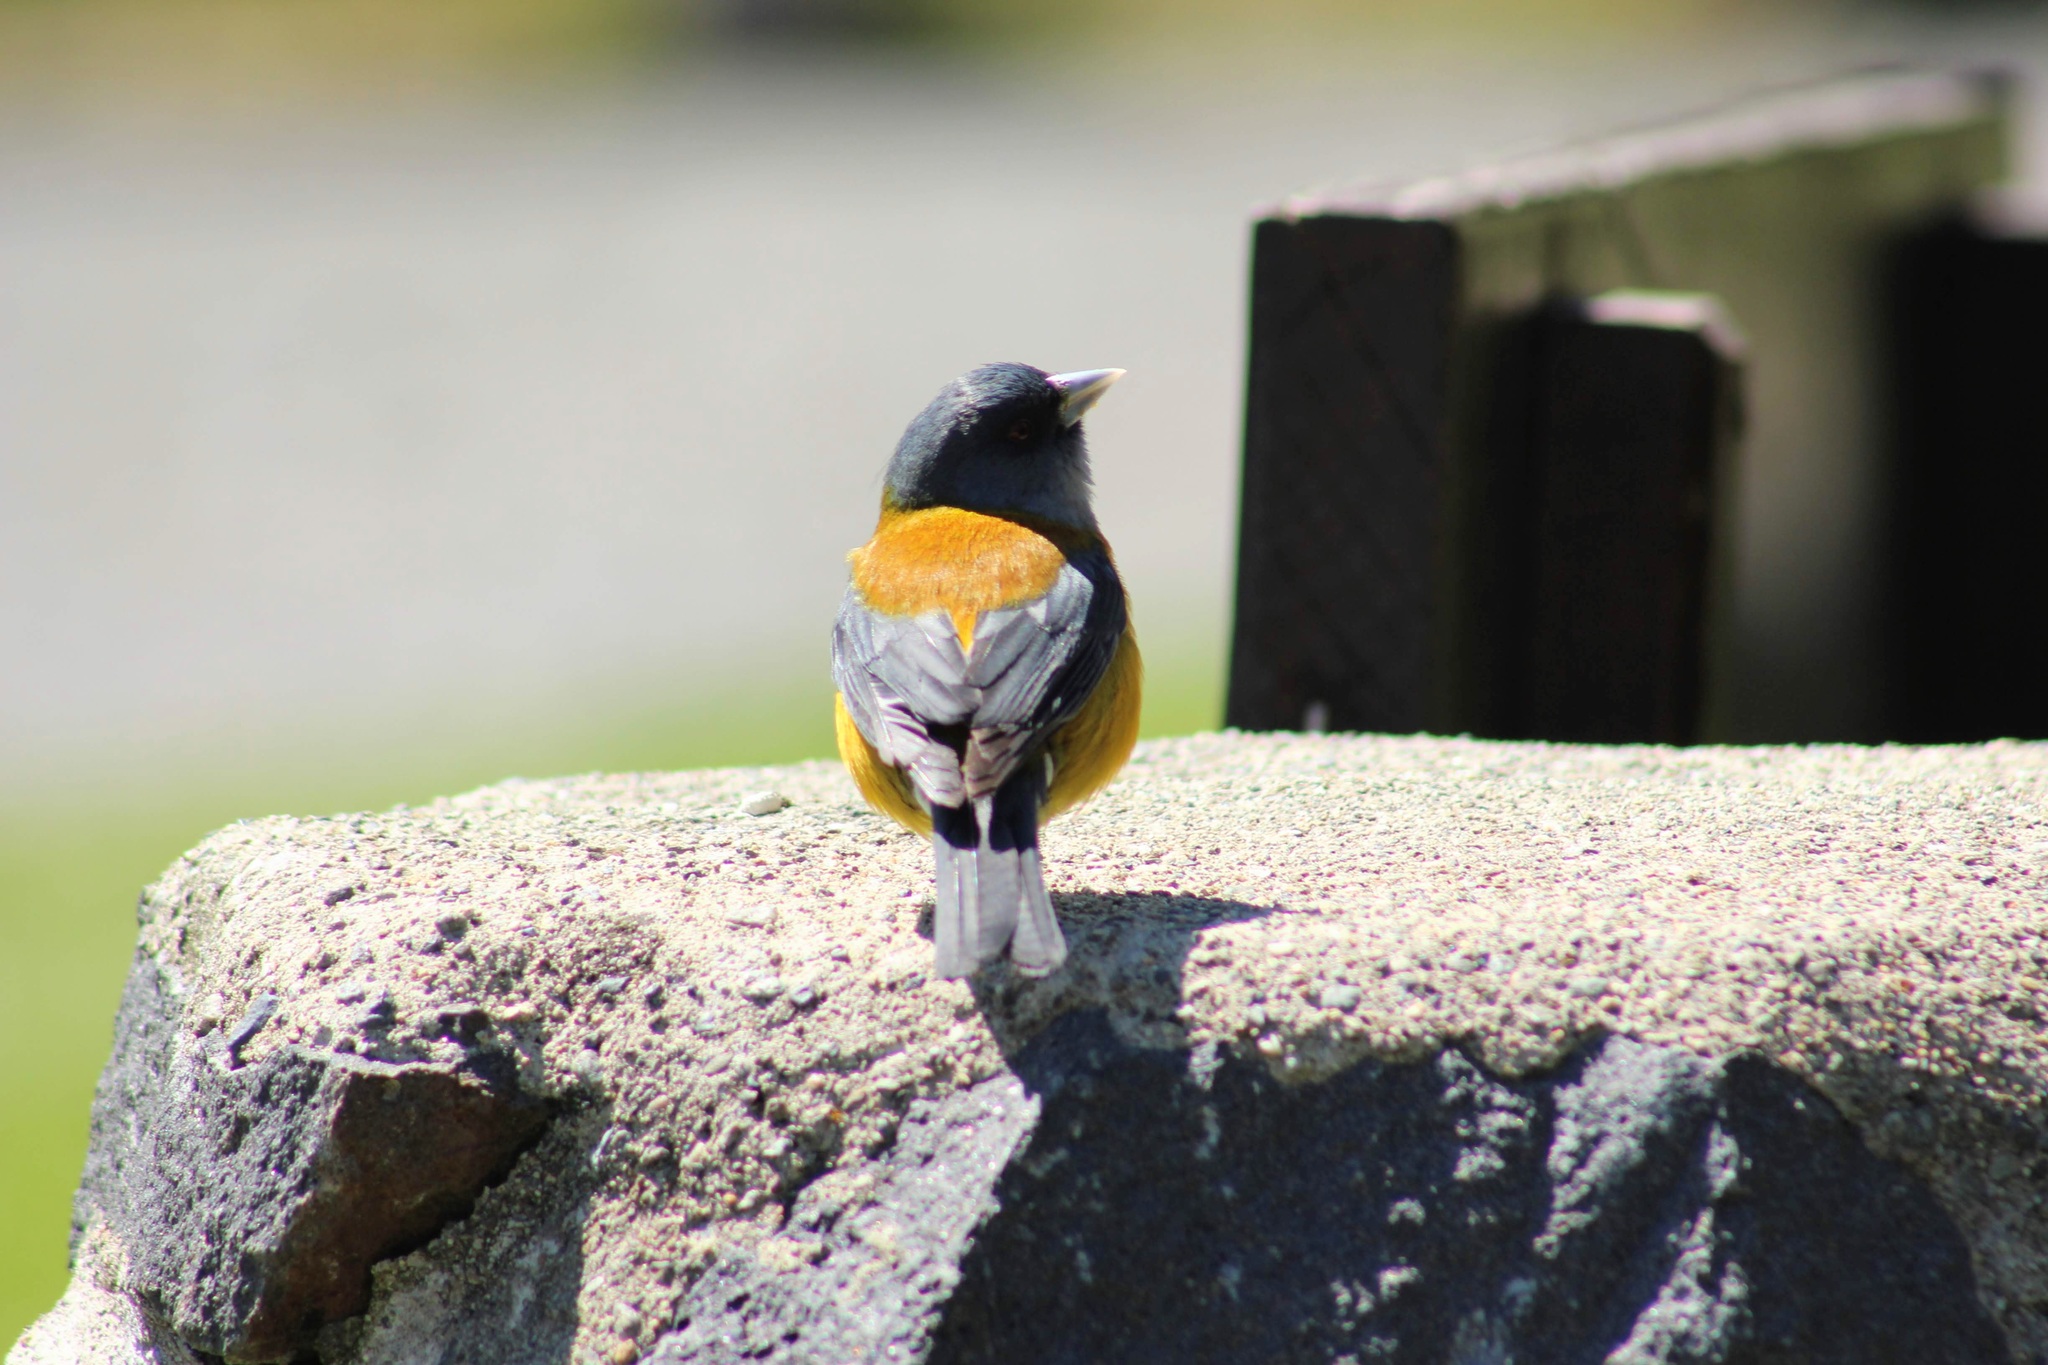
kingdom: Animalia
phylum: Chordata
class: Aves
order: Passeriformes
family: Thraupidae
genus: Phrygilus
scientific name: Phrygilus patagonicus
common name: Patagonian sierra finch
